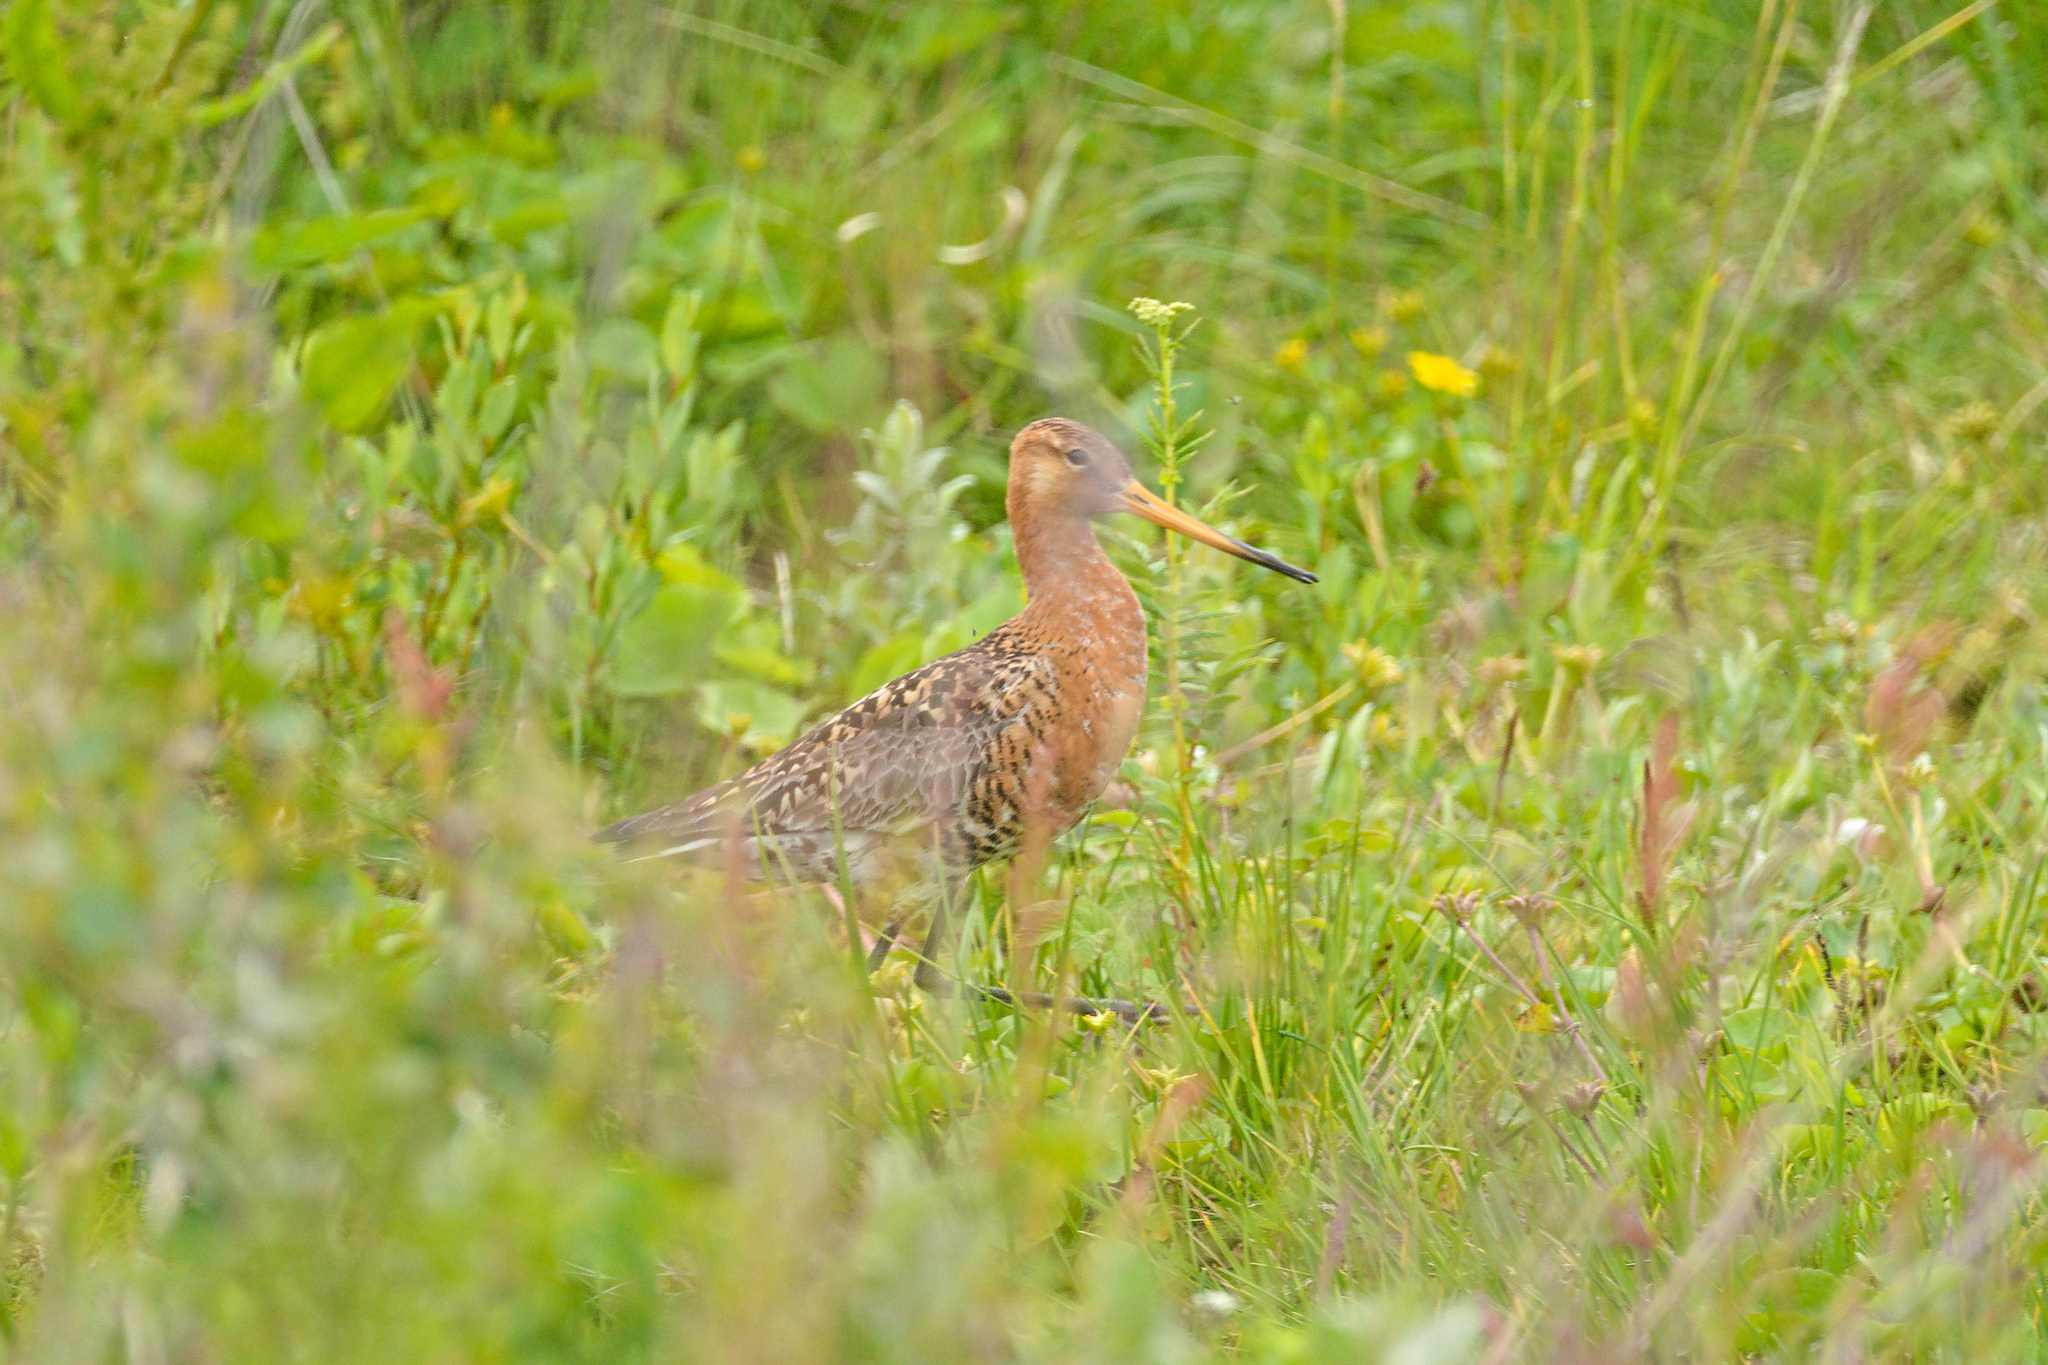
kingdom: Animalia
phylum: Chordata
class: Aves
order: Charadriiformes
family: Scolopacidae
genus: Limosa
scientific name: Limosa limosa
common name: Black-tailed godwit
